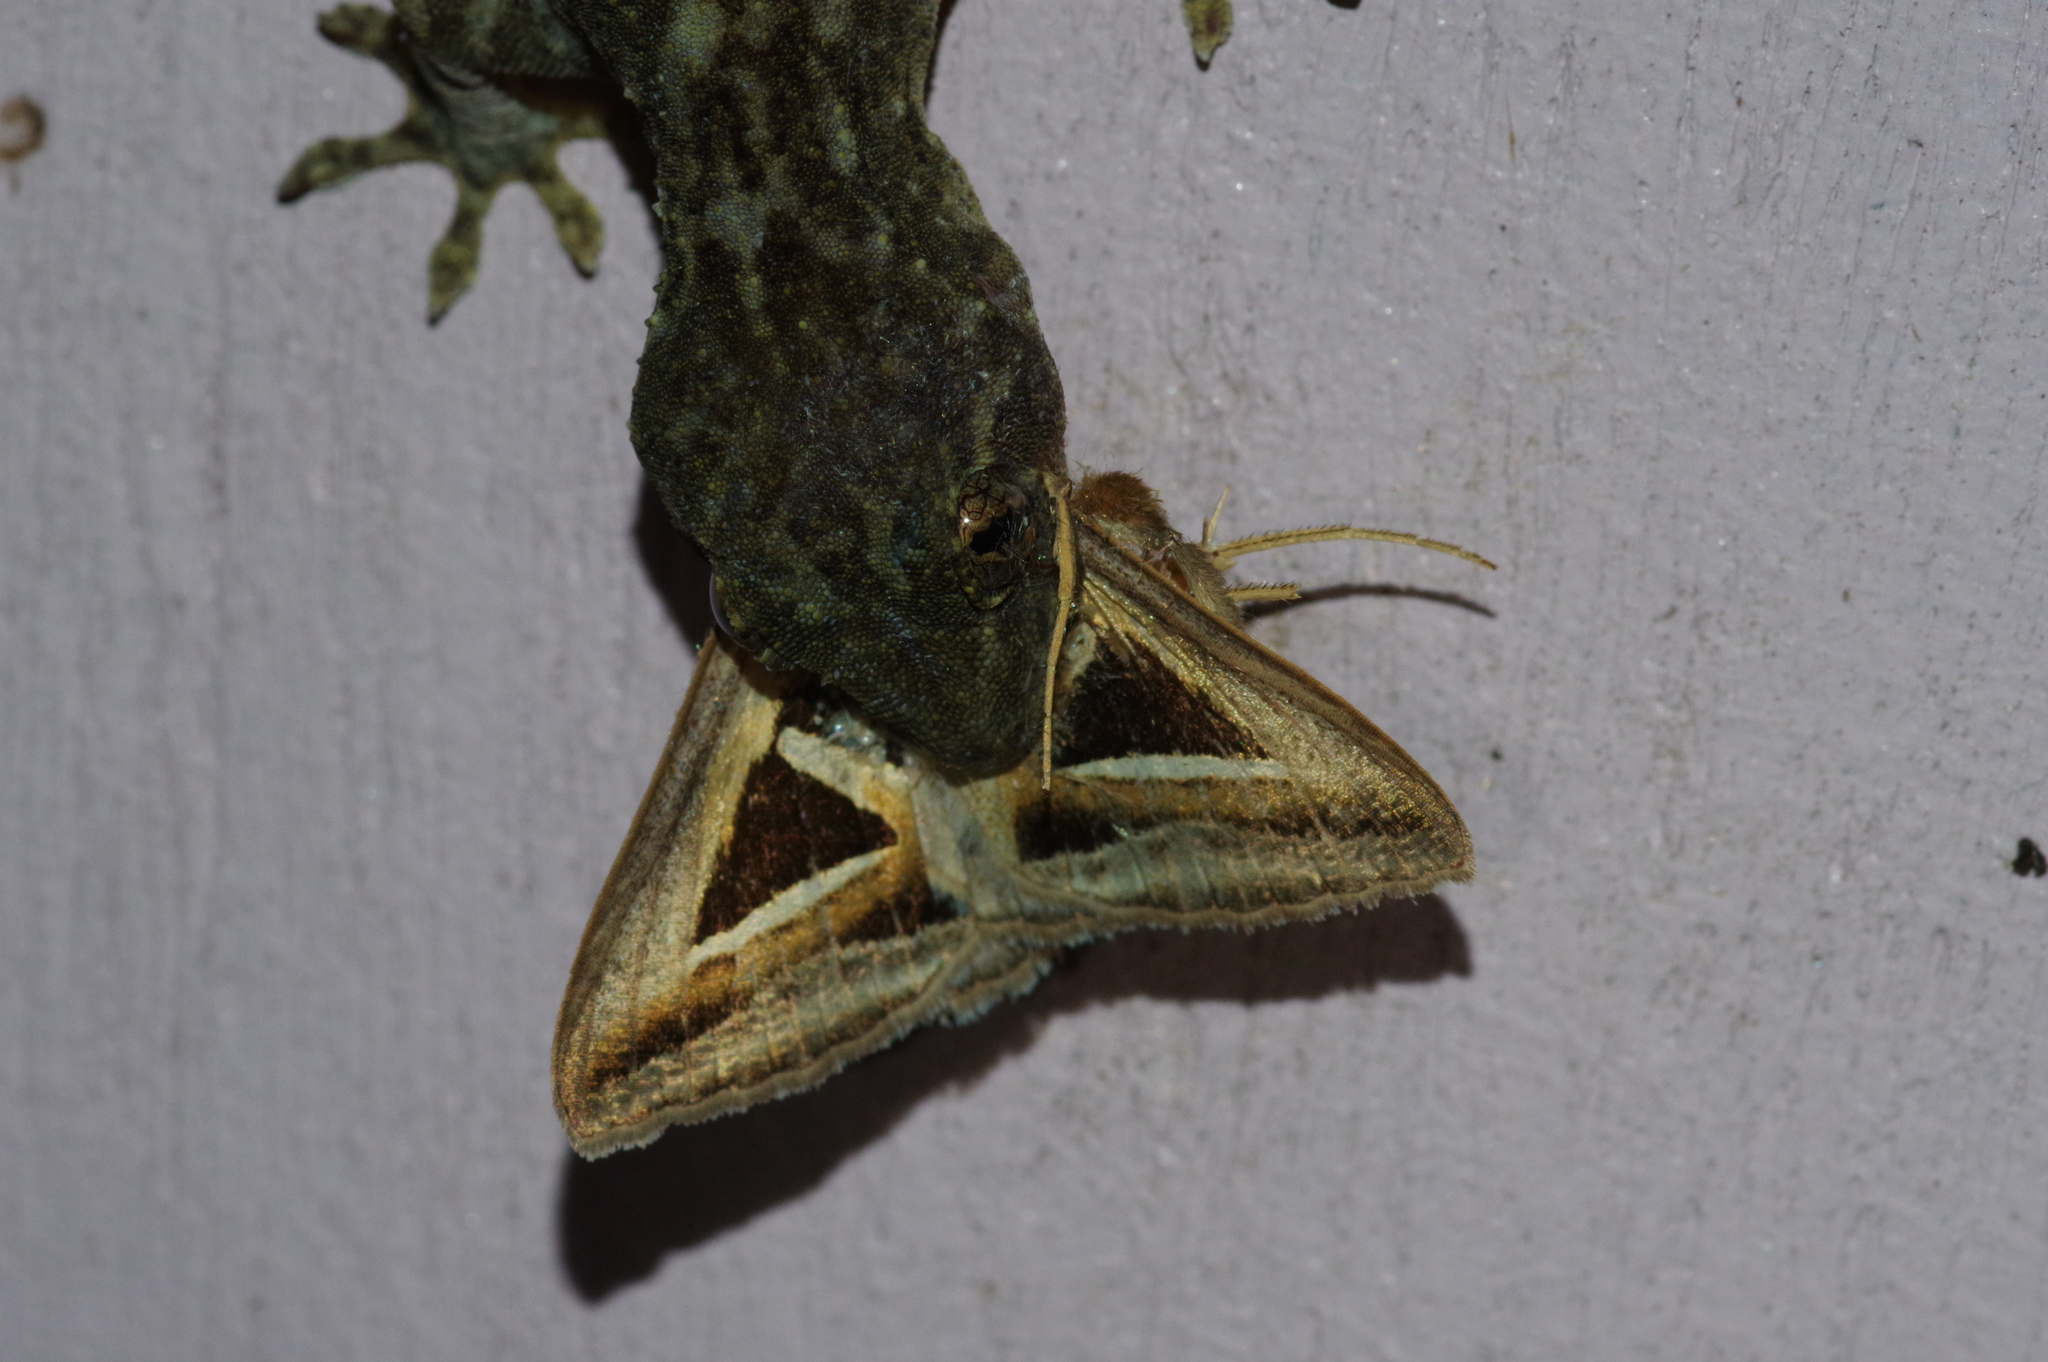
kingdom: Animalia
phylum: Arthropoda
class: Insecta
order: Lepidoptera
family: Erebidae
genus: Trigonodes
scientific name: Trigonodes hyppasia
